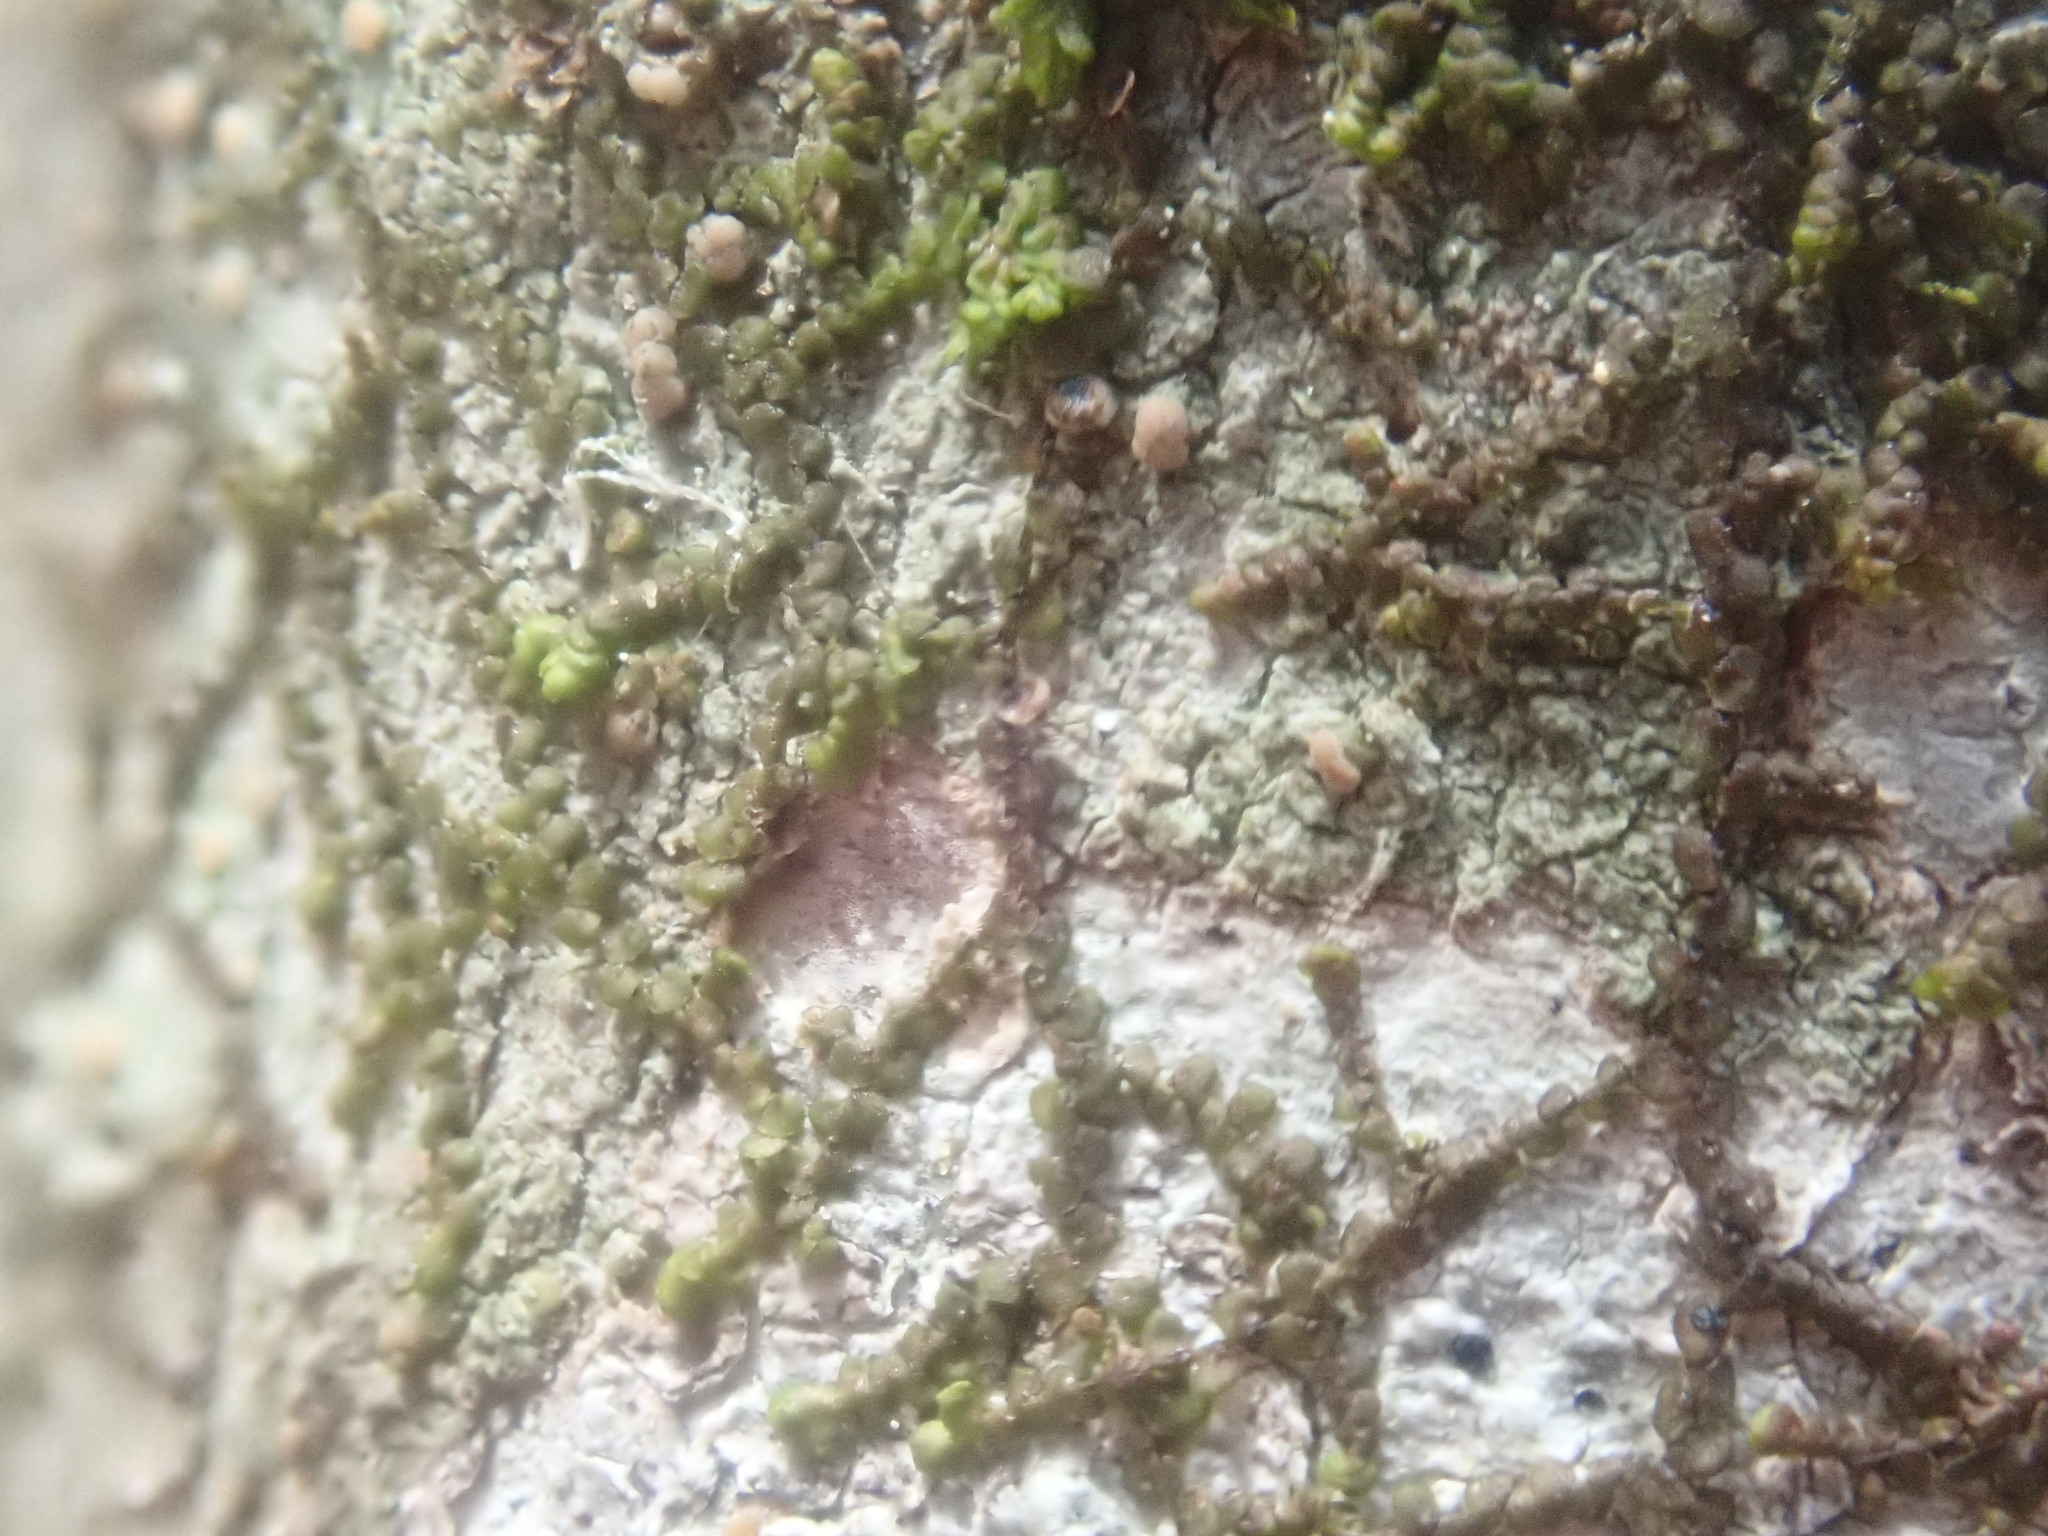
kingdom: Plantae
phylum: Marchantiophyta
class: Jungermanniopsida
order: Porellales
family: Frullaniaceae
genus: Frullania
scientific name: Frullania
